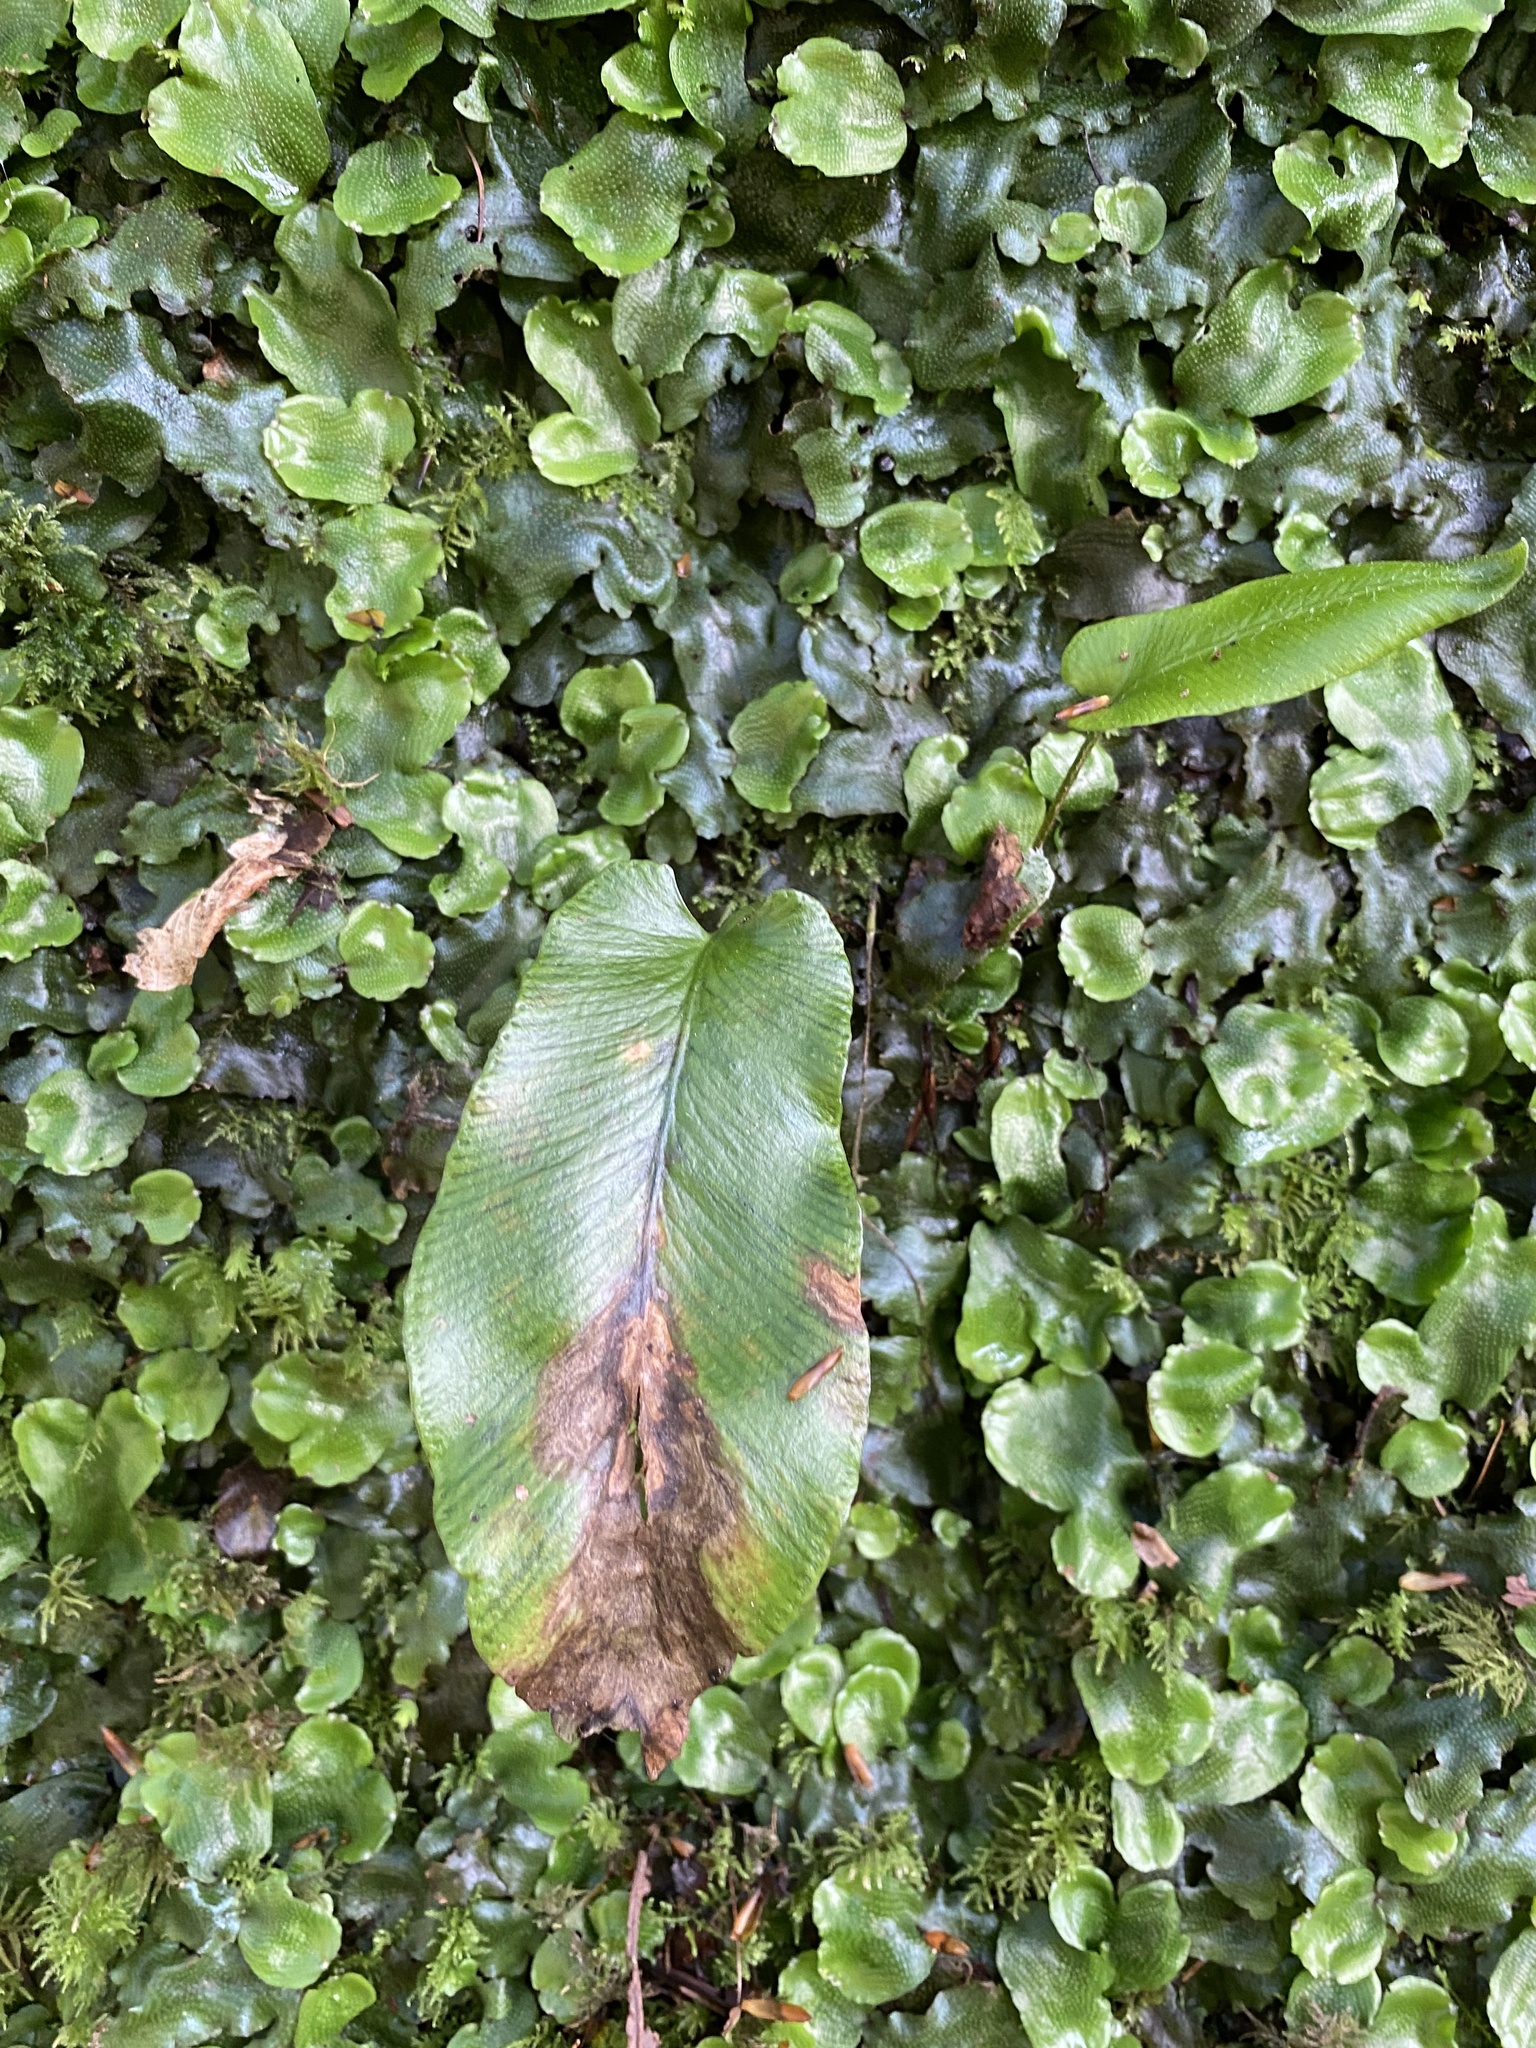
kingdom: Plantae
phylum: Tracheophyta
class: Polypodiopsida
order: Polypodiales
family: Aspleniaceae
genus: Asplenium
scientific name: Asplenium scolopendrium
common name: Hart's-tongue fern
